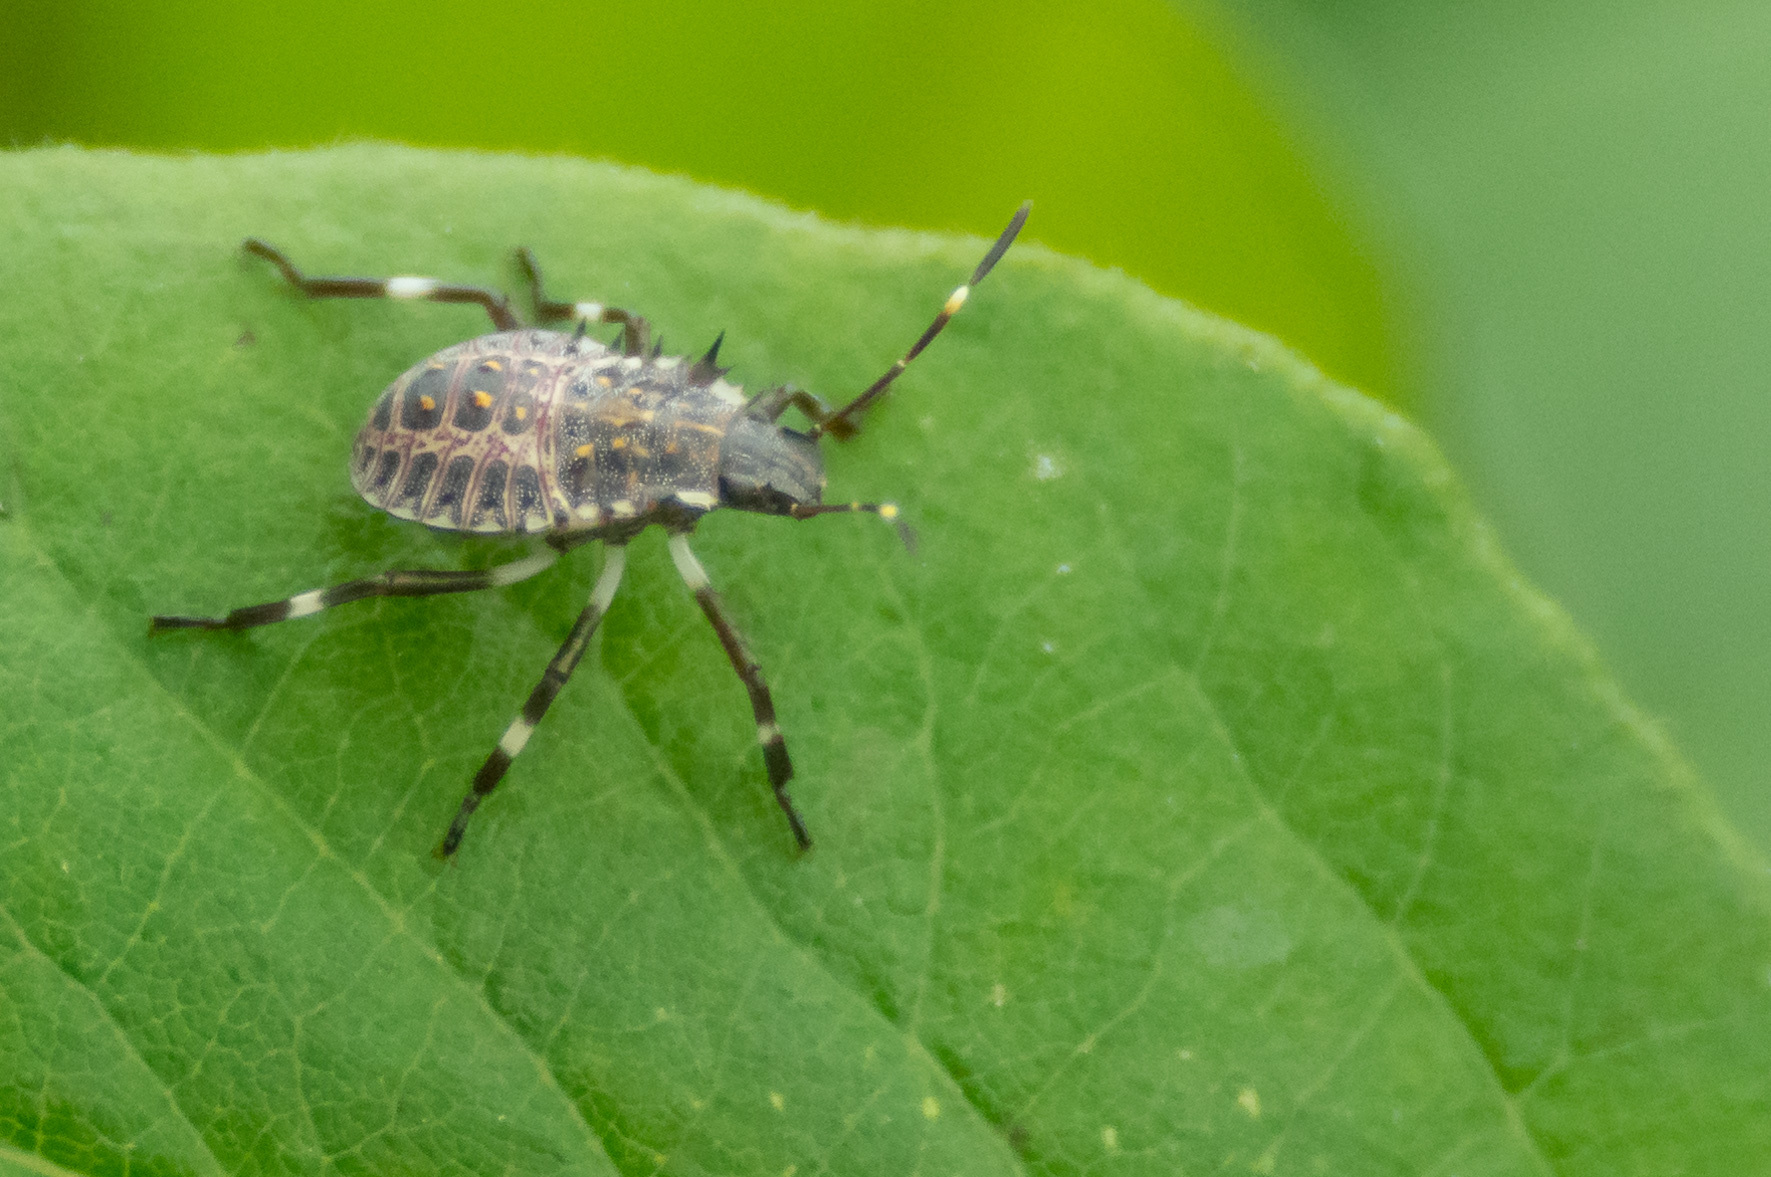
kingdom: Animalia
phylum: Arthropoda
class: Insecta
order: Hemiptera
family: Pentatomidae
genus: Halyomorpha
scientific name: Halyomorpha halys
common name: Brown marmorated stink bug
